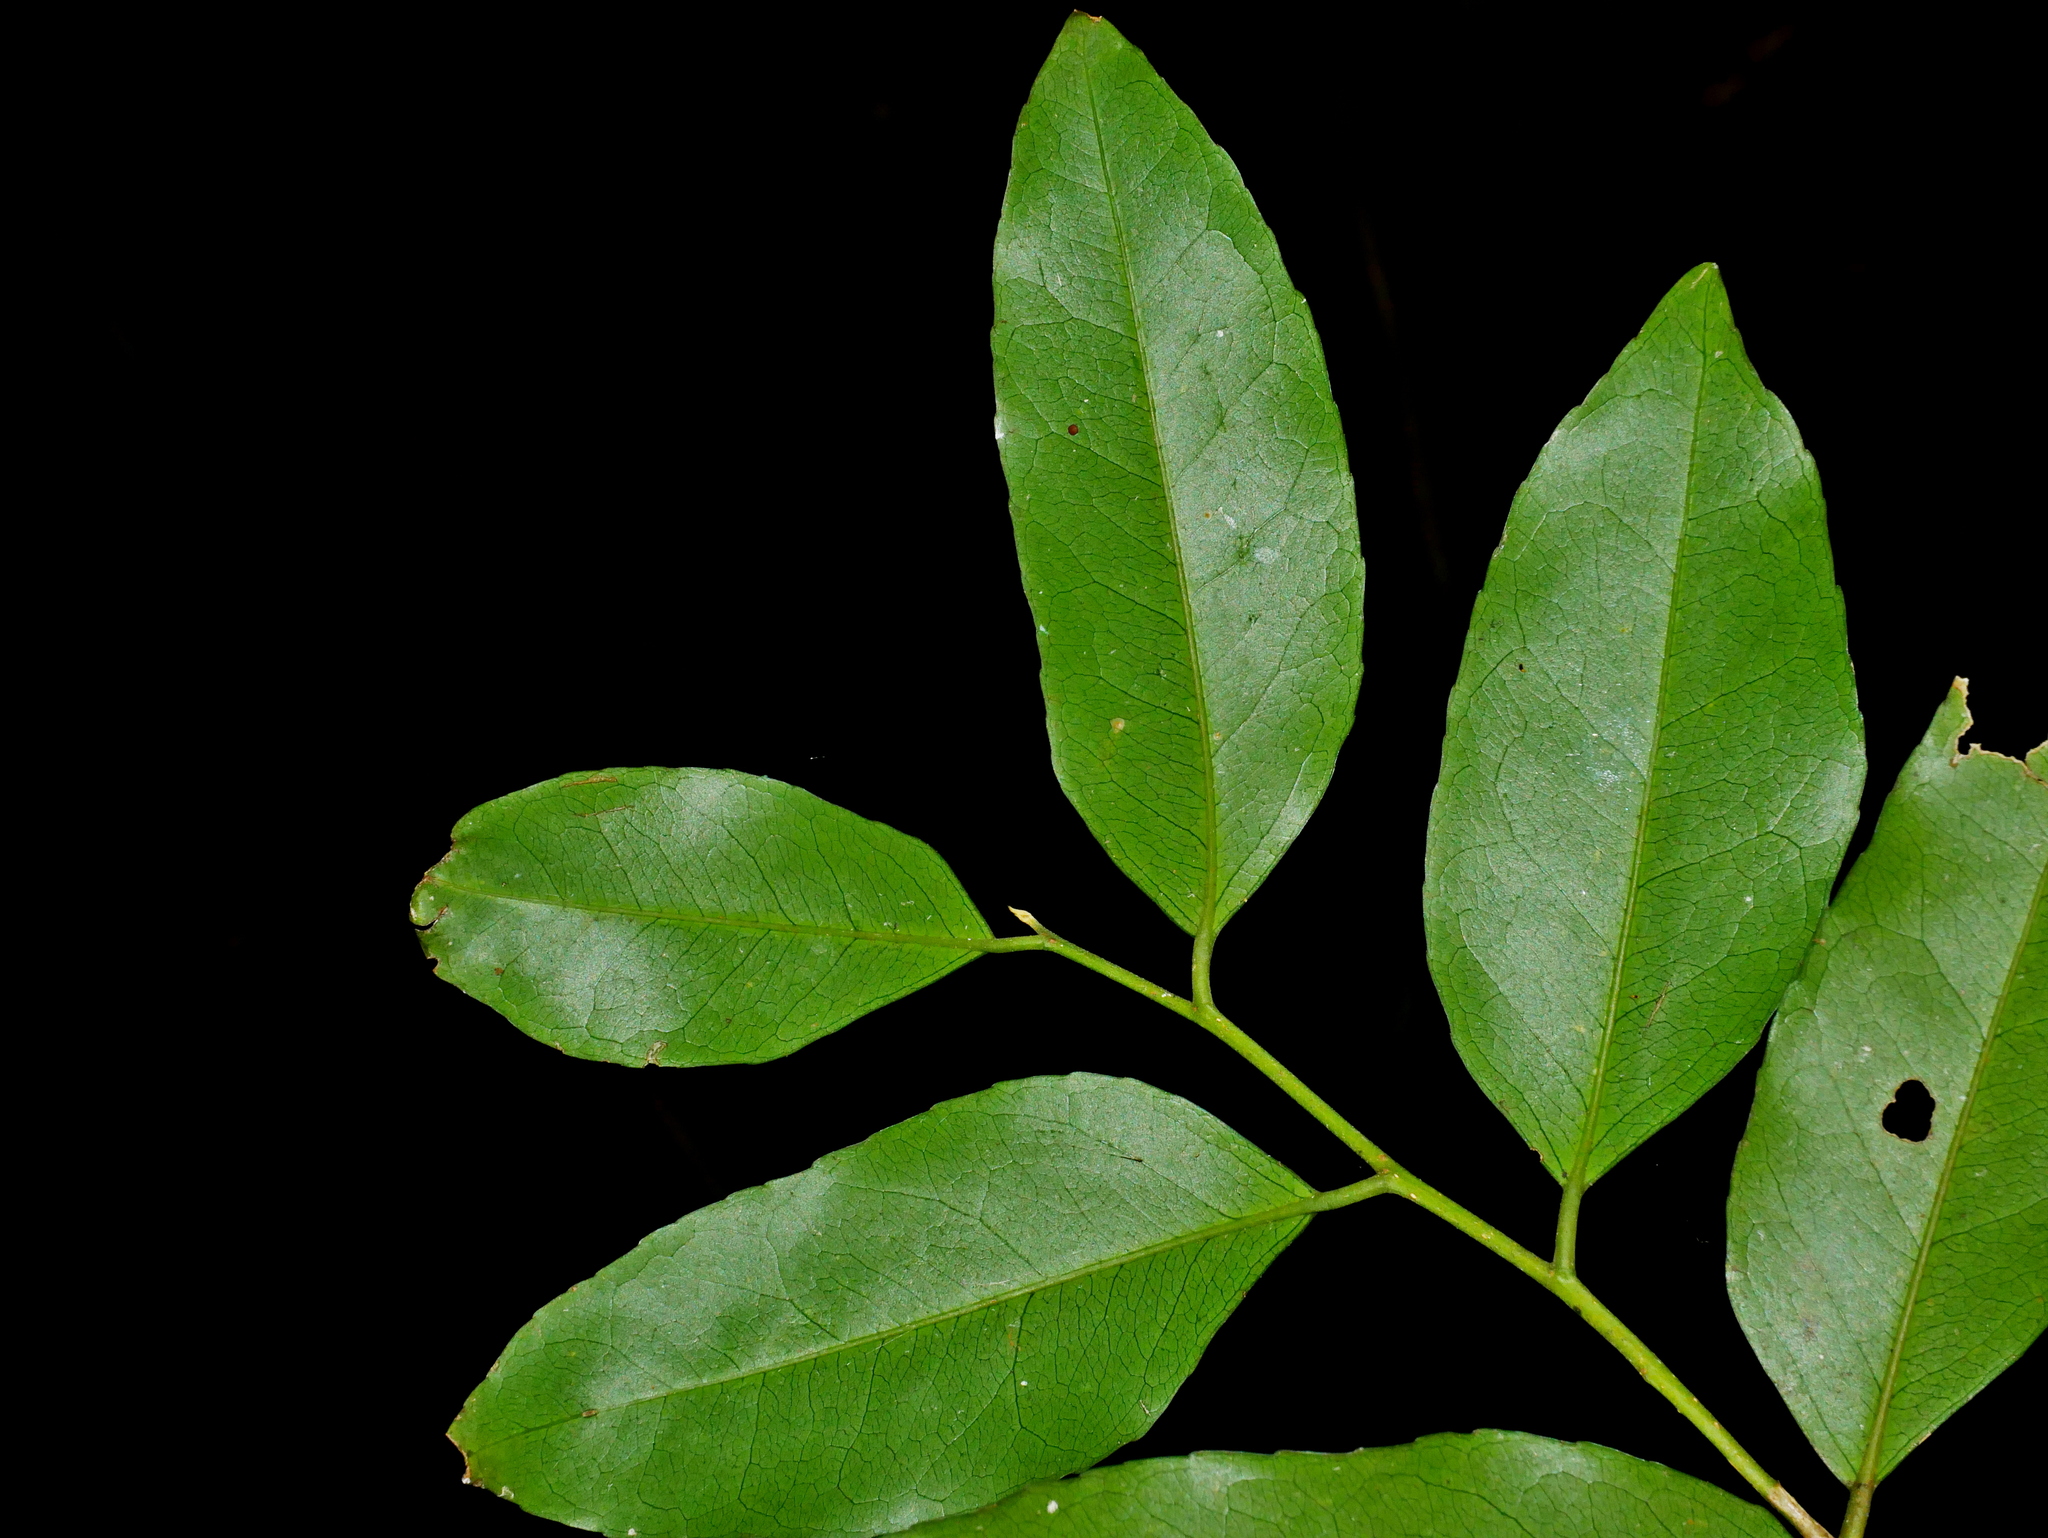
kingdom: Plantae
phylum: Tracheophyta
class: Magnoliopsida
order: Malpighiales
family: Putranjivaceae
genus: Putranjiva
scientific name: Putranjiva formosana
